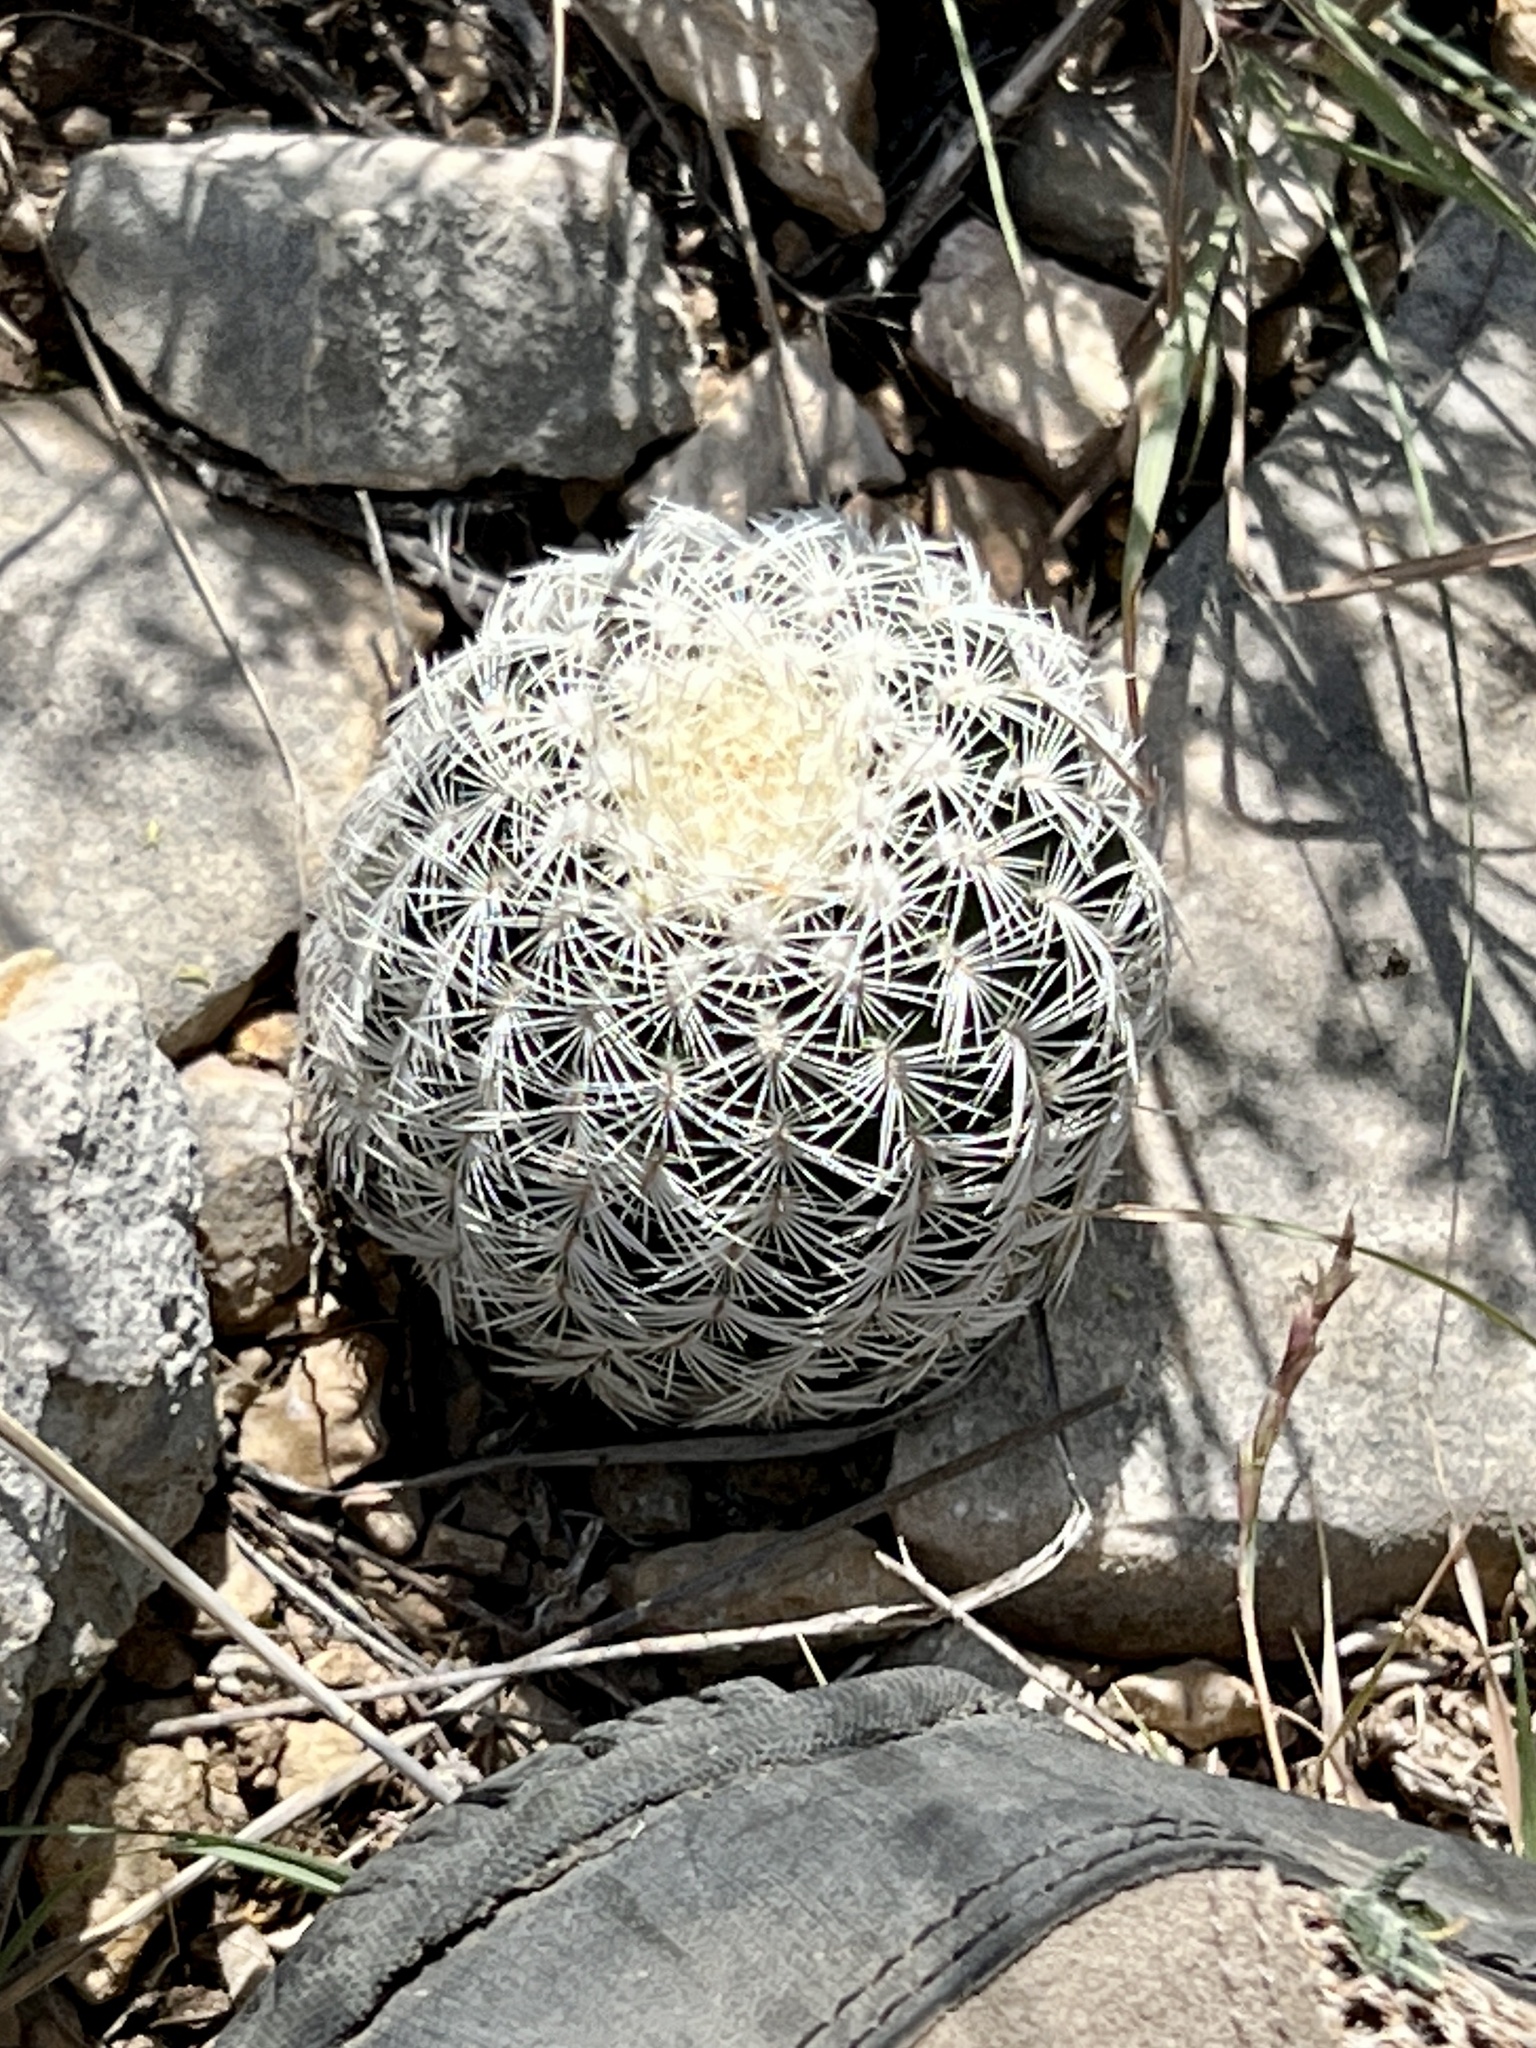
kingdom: Plantae
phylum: Tracheophyta
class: Magnoliopsida
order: Caryophyllales
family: Cactaceae
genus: Echinocereus
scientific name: Echinocereus reichenbachii
